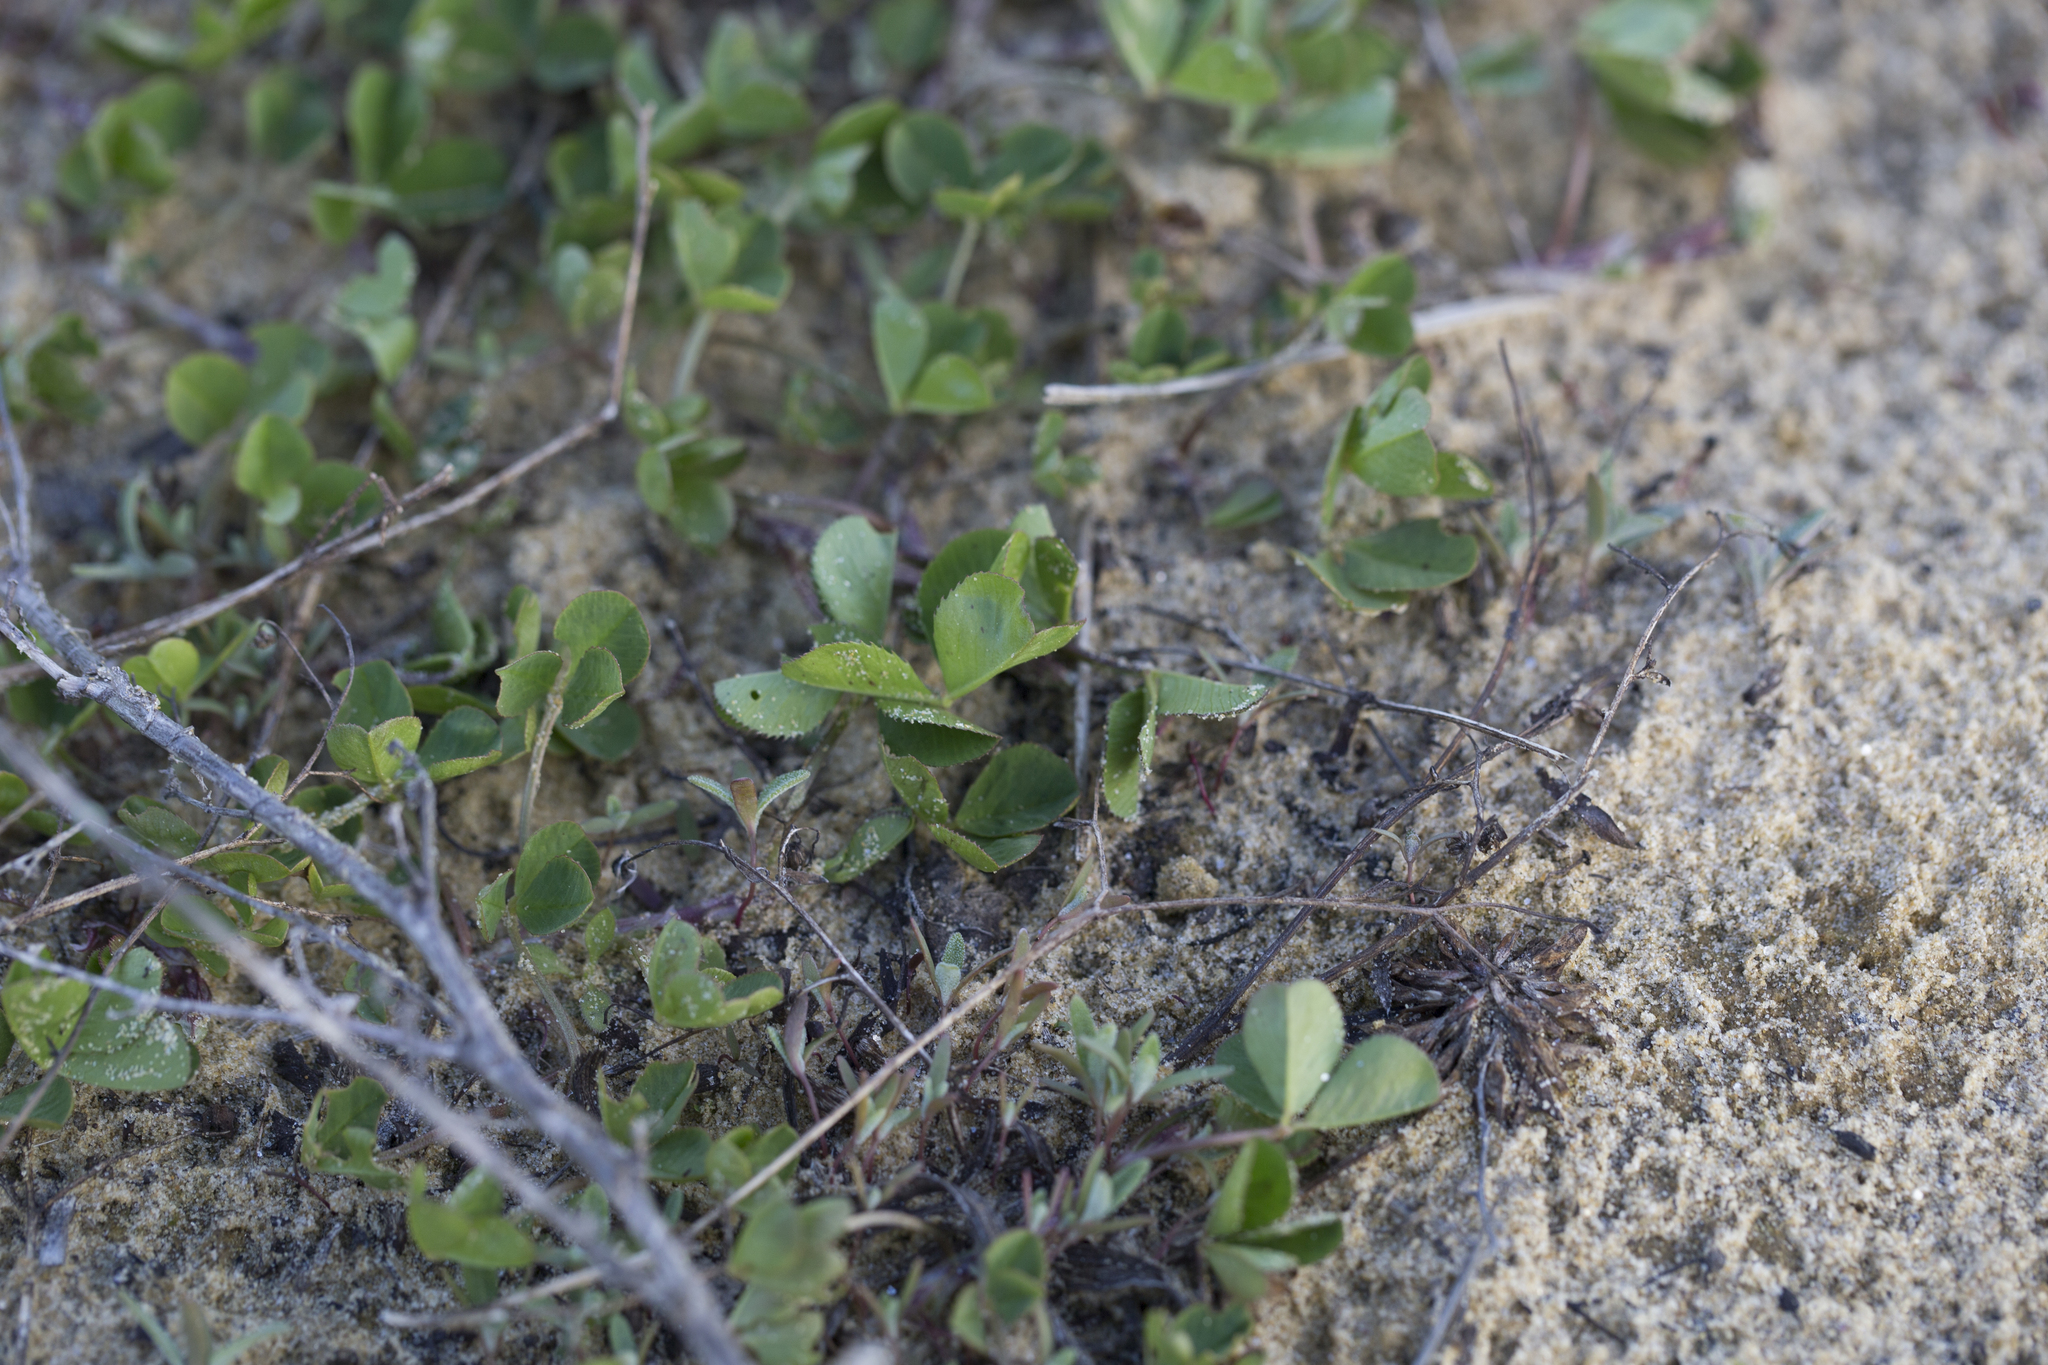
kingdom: Plantae
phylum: Tracheophyta
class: Magnoliopsida
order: Fabales
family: Fabaceae
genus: Trifolium
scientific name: Trifolium repens
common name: White clover
